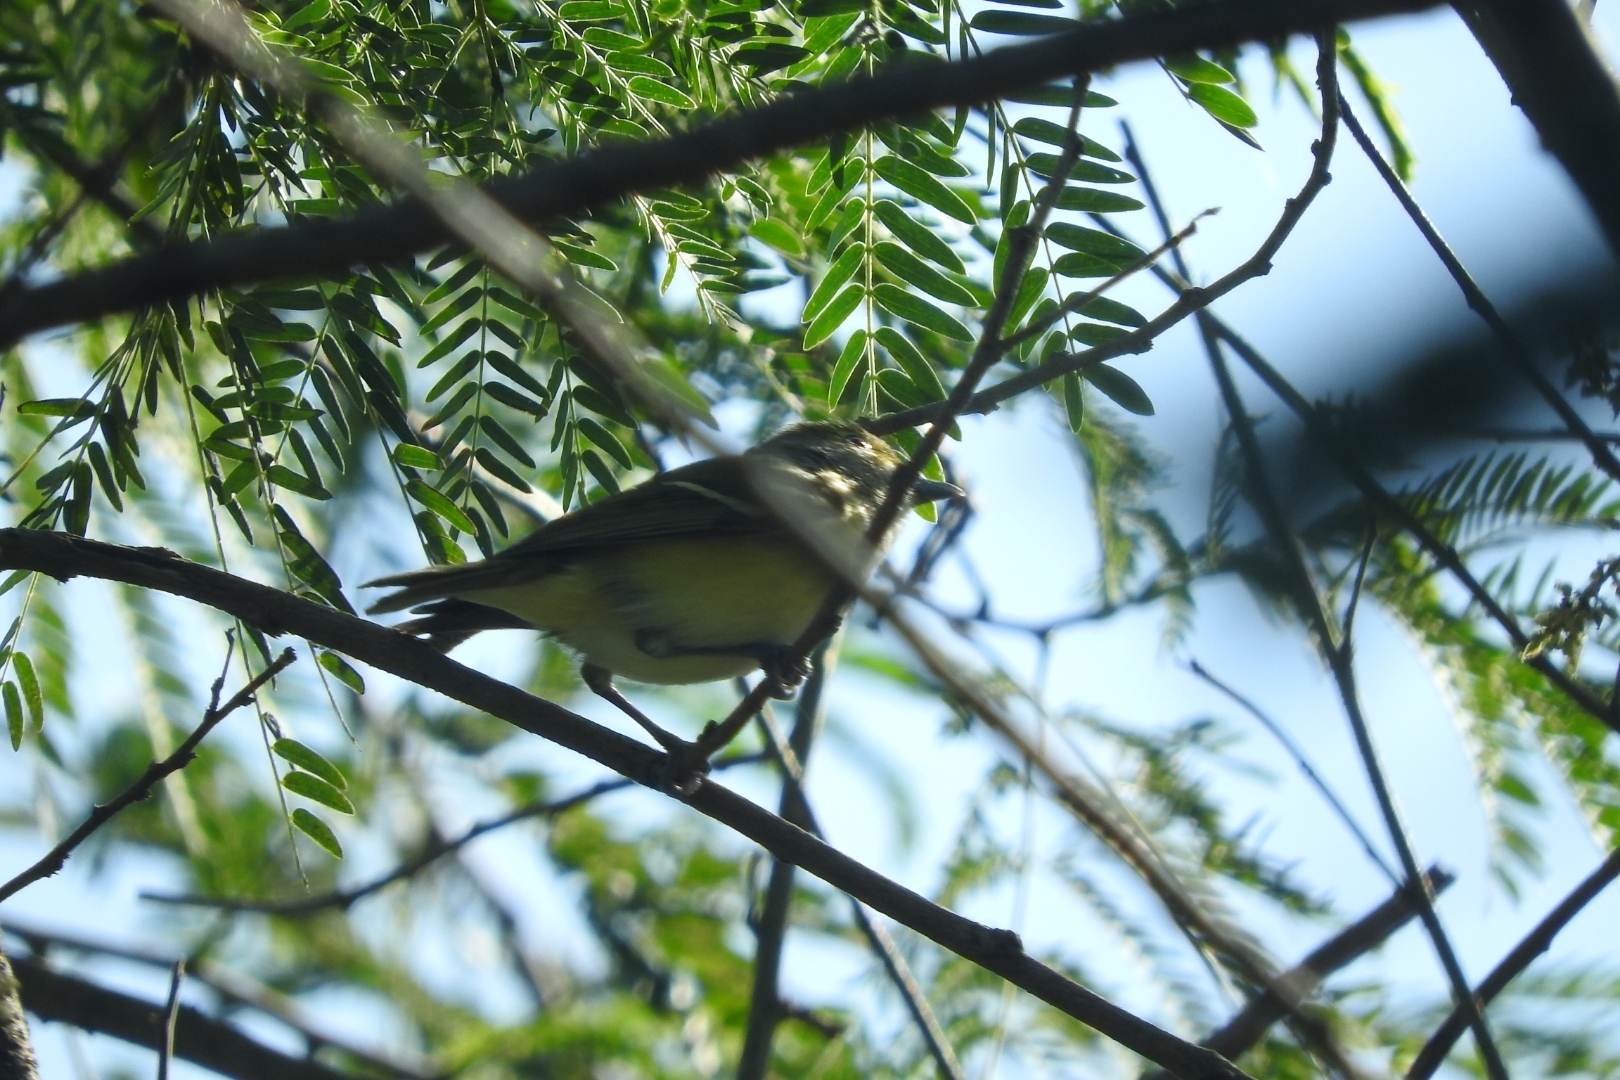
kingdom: Animalia
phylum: Chordata
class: Aves
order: Passeriformes
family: Vireonidae
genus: Vireo
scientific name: Vireo griseus
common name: White-eyed vireo
